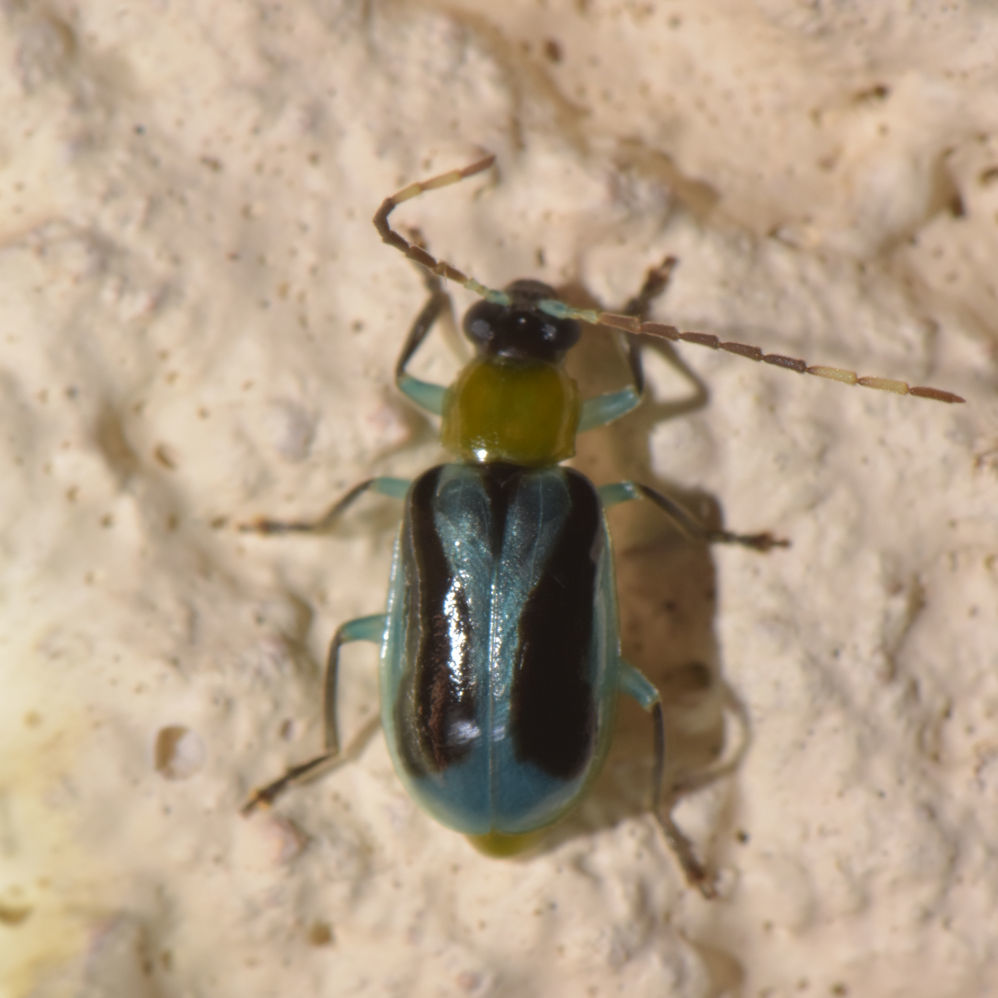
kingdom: Animalia
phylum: Arthropoda
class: Insecta
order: Coleoptera
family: Chrysomelidae
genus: Diabrotica
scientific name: Diabrotica
